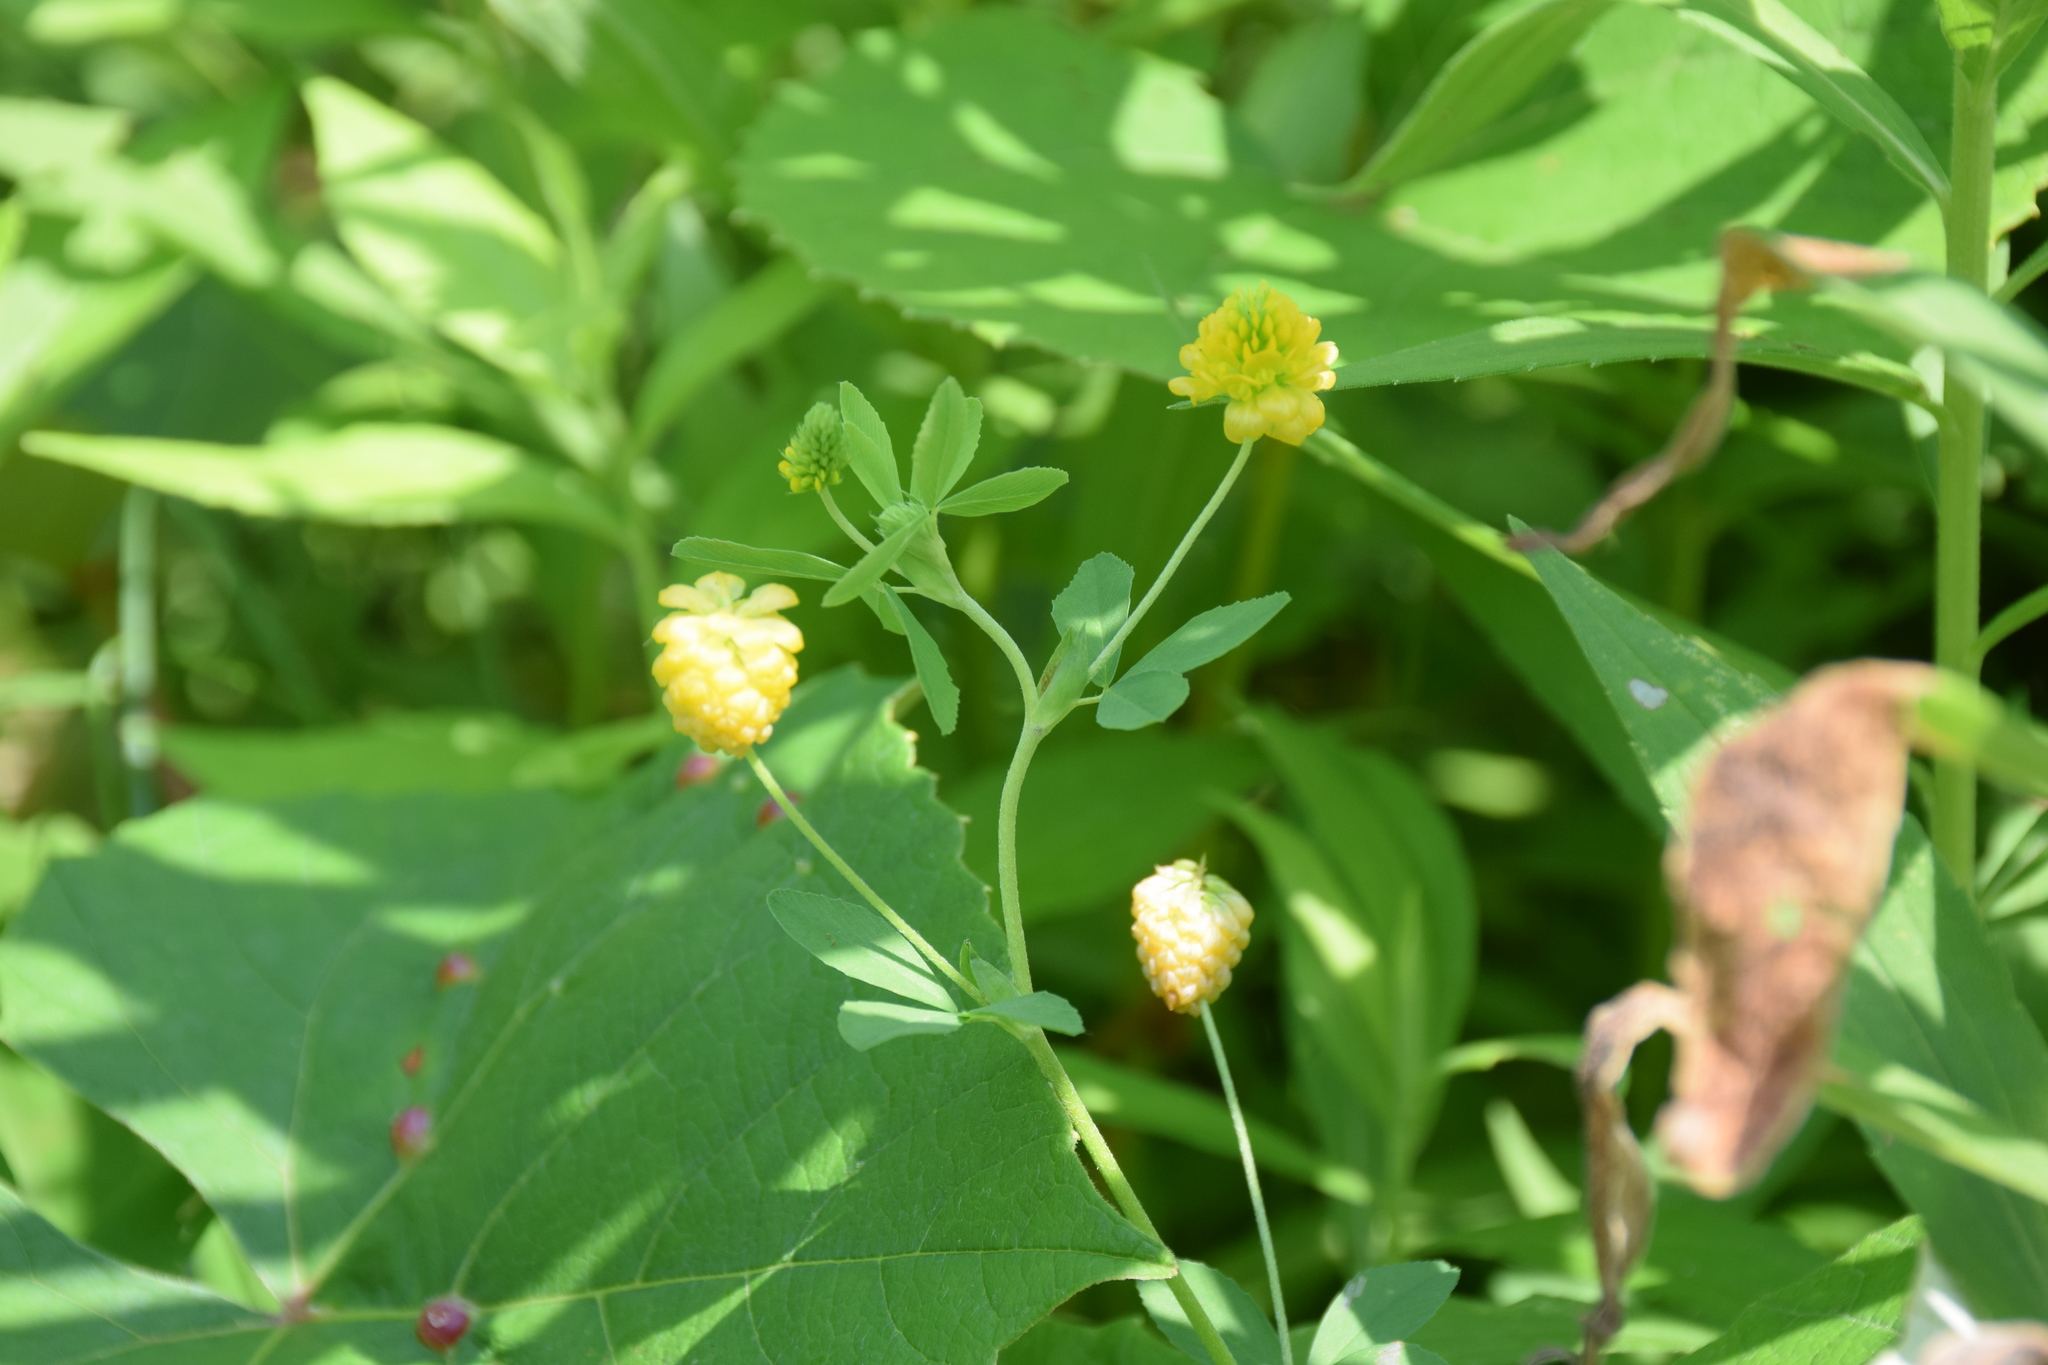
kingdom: Plantae
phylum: Tracheophyta
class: Magnoliopsida
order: Fabales
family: Fabaceae
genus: Trifolium
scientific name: Trifolium aureum
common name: Golden clover
